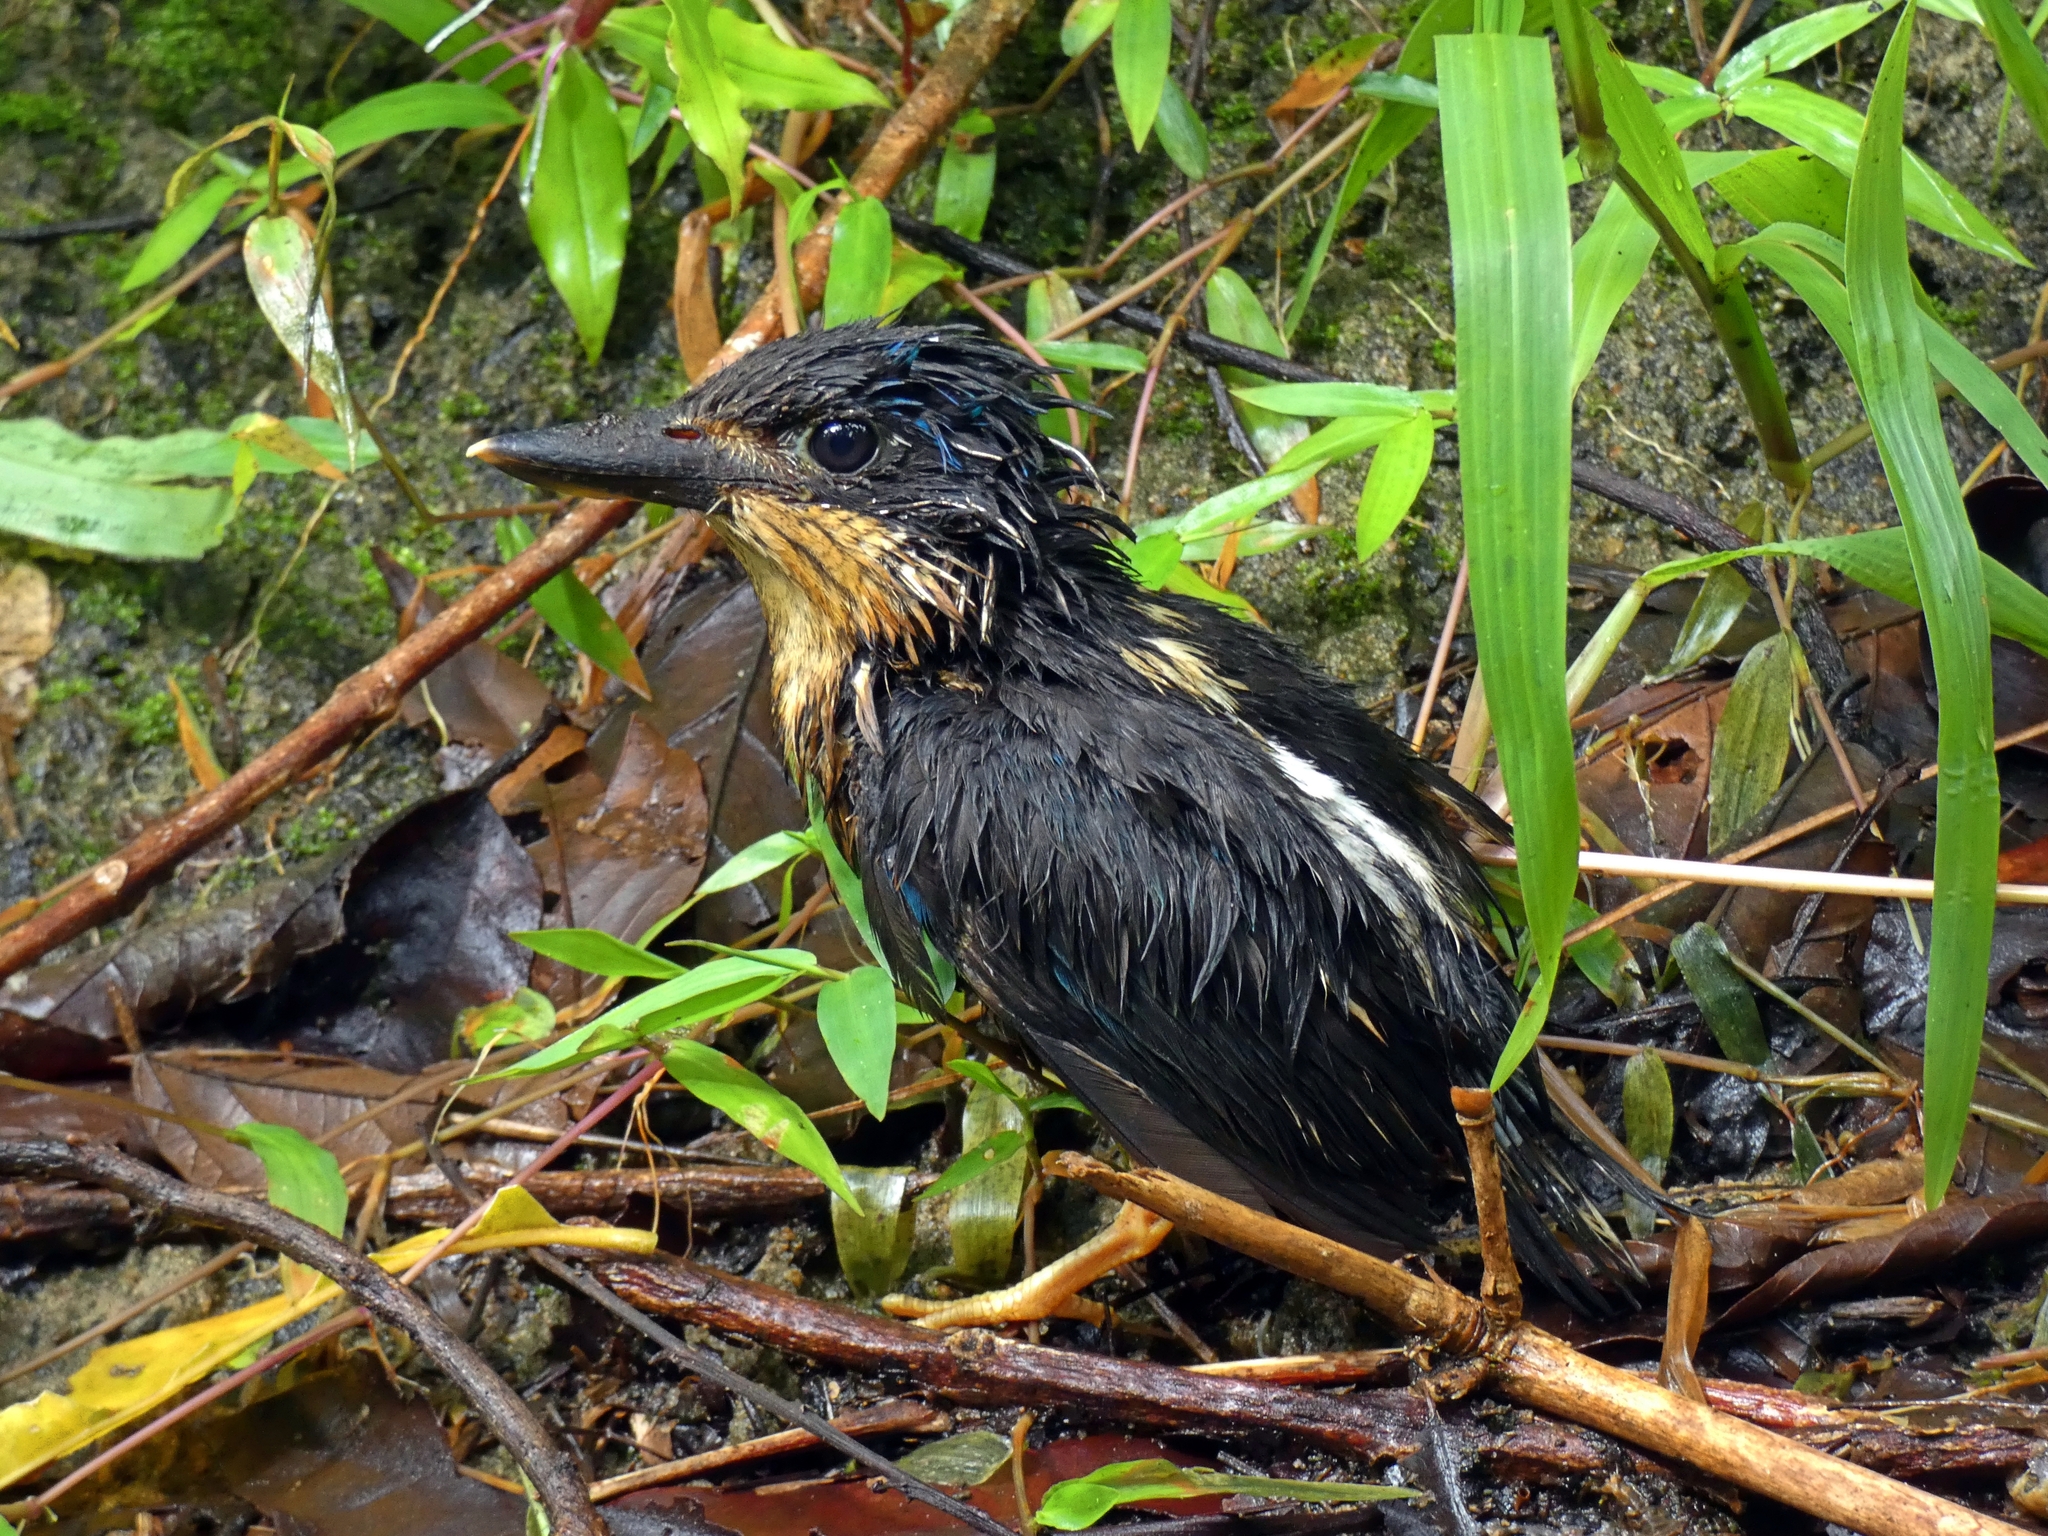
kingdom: Animalia
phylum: Chordata
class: Aves
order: Coraciiformes
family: Alcedinidae
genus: Tanysiptera
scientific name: Tanysiptera sylvia
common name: Buff-breasted paradise kingfisher
